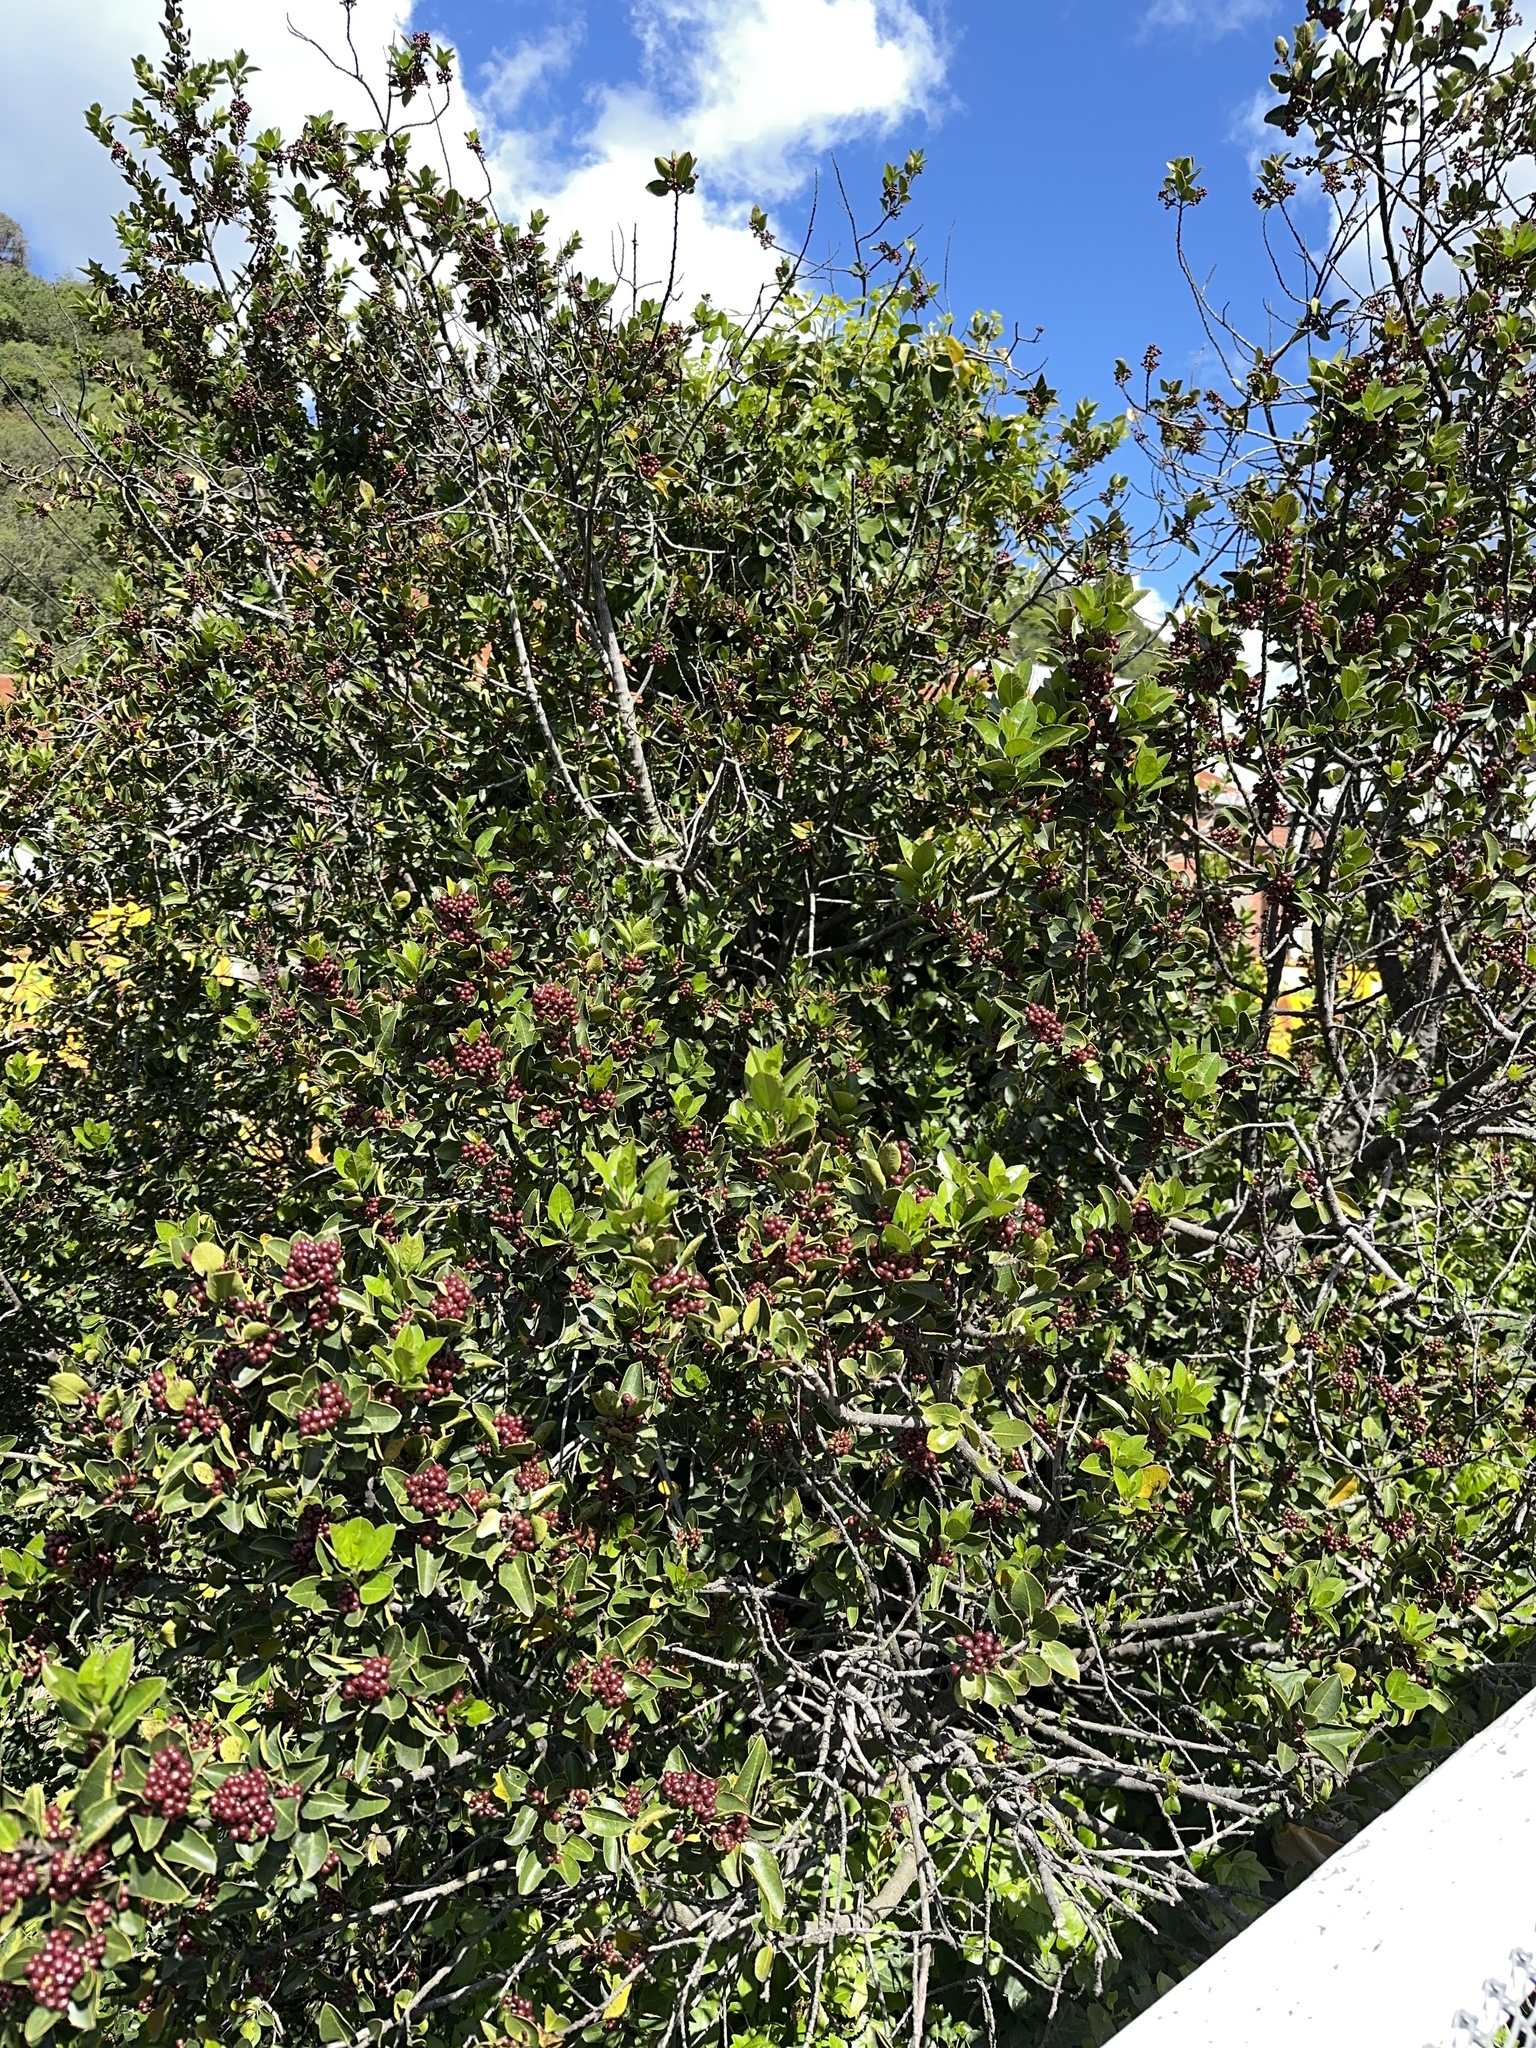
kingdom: Plantae
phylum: Tracheophyta
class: Magnoliopsida
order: Rosales
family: Rhamnaceae
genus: Rhamnus
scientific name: Rhamnus alaternus
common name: Mediterranean buckthorn
